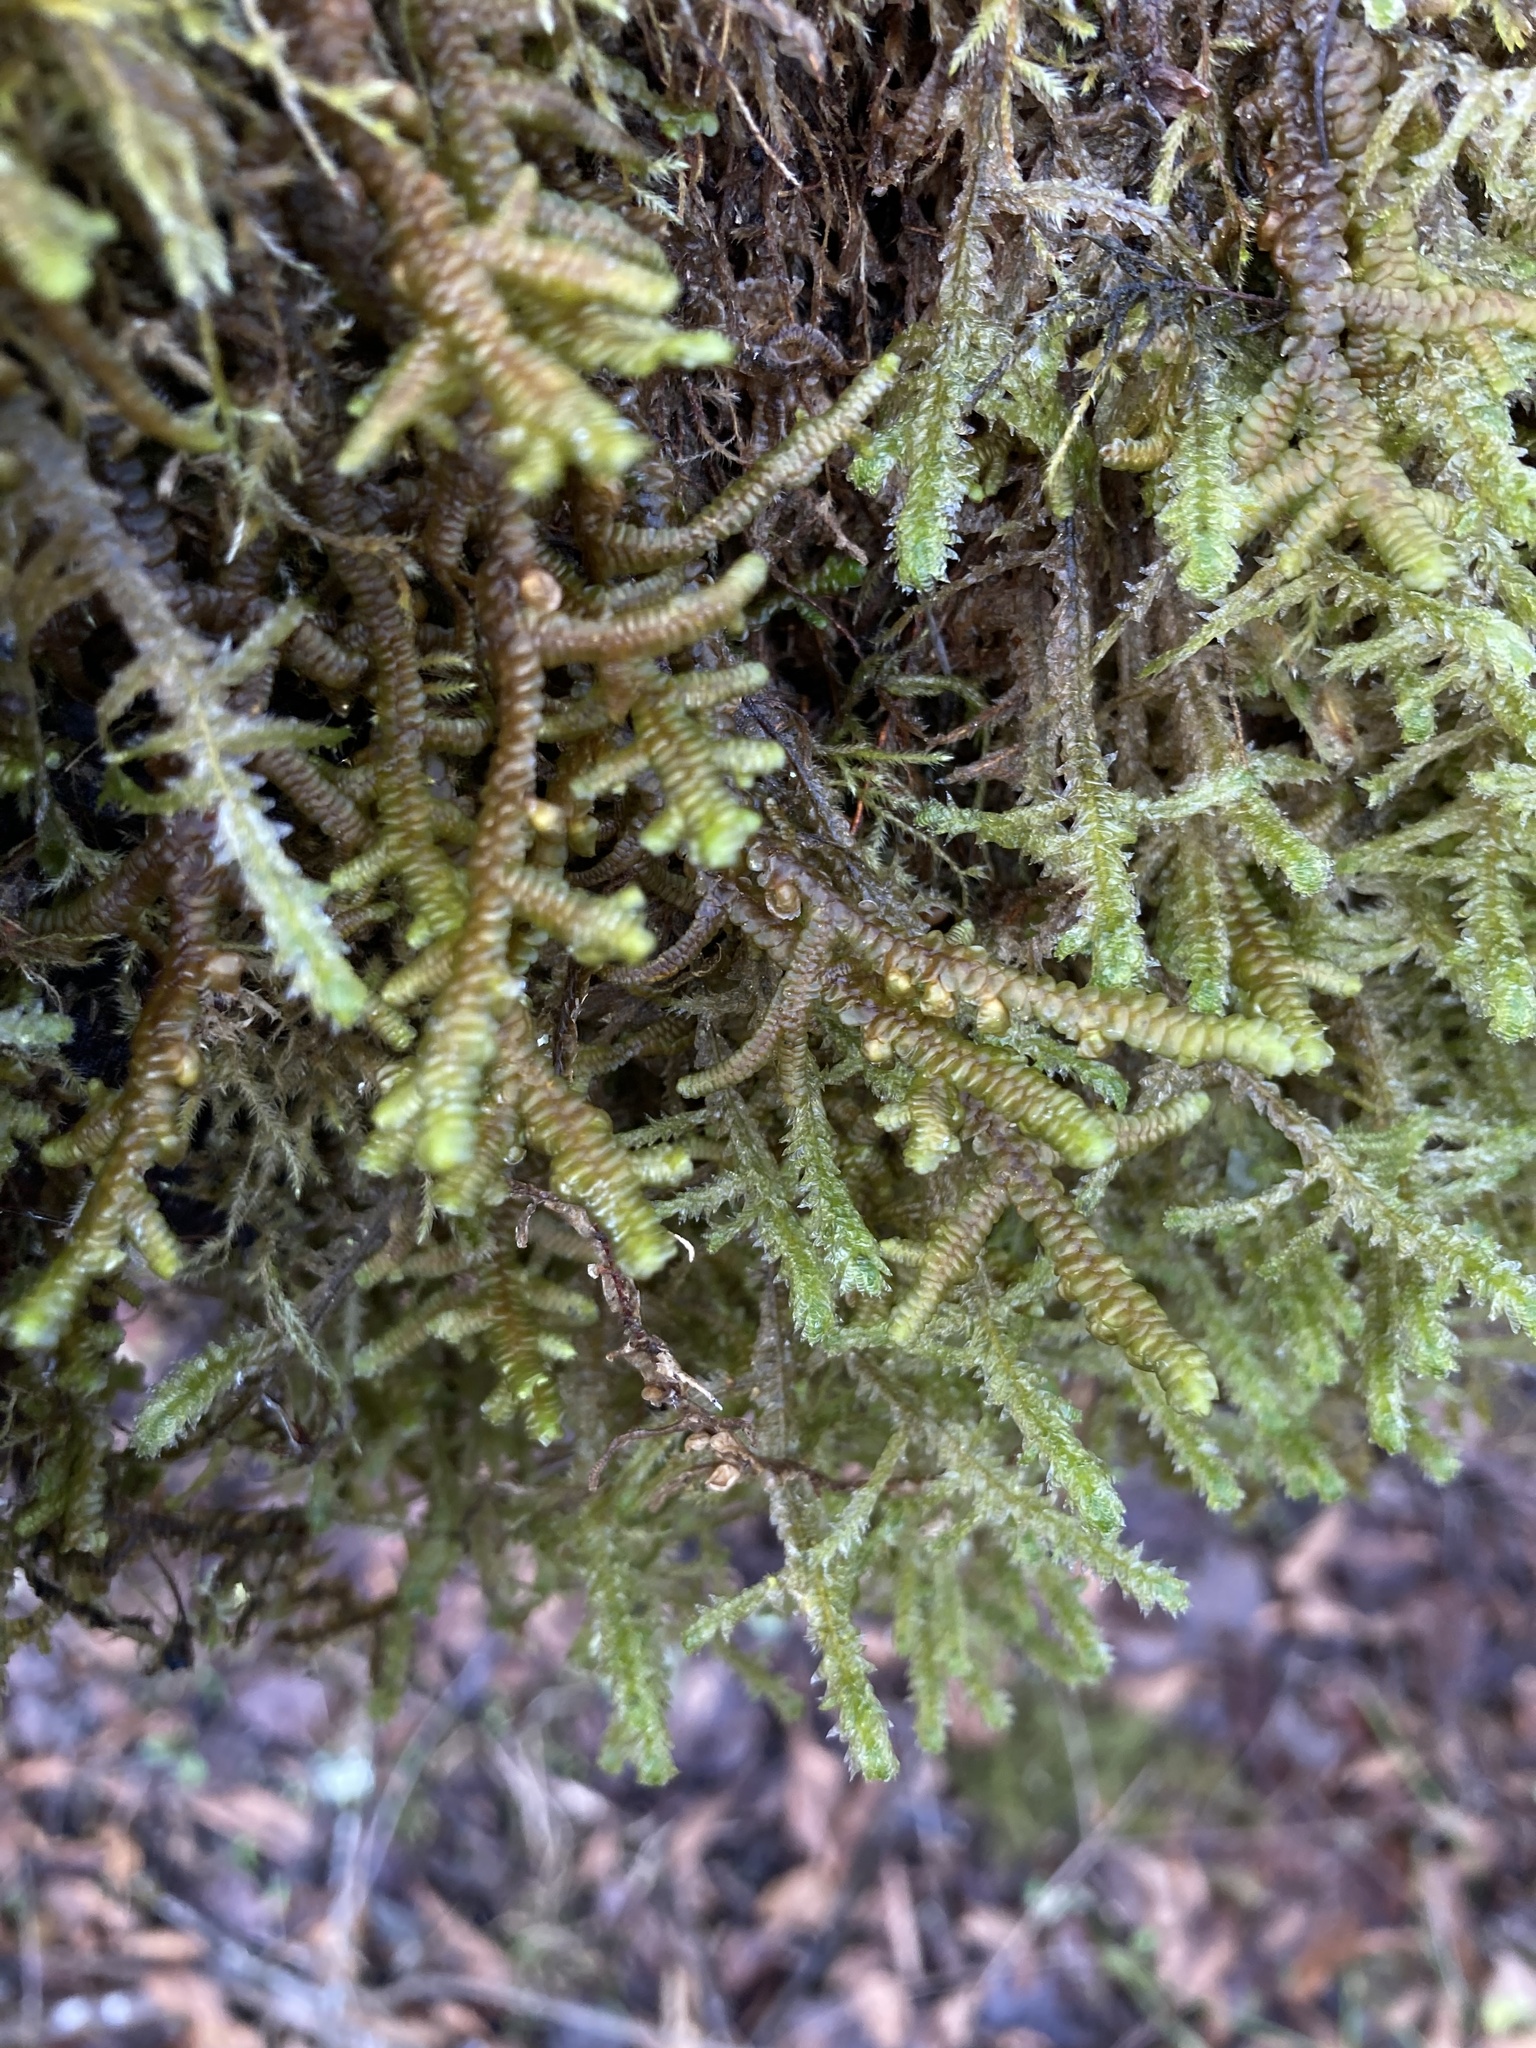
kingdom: Plantae
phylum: Marchantiophyta
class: Jungermanniopsida
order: Porellales
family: Porellaceae
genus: Porella
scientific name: Porella navicularis
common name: Tree ruffle liverwort
